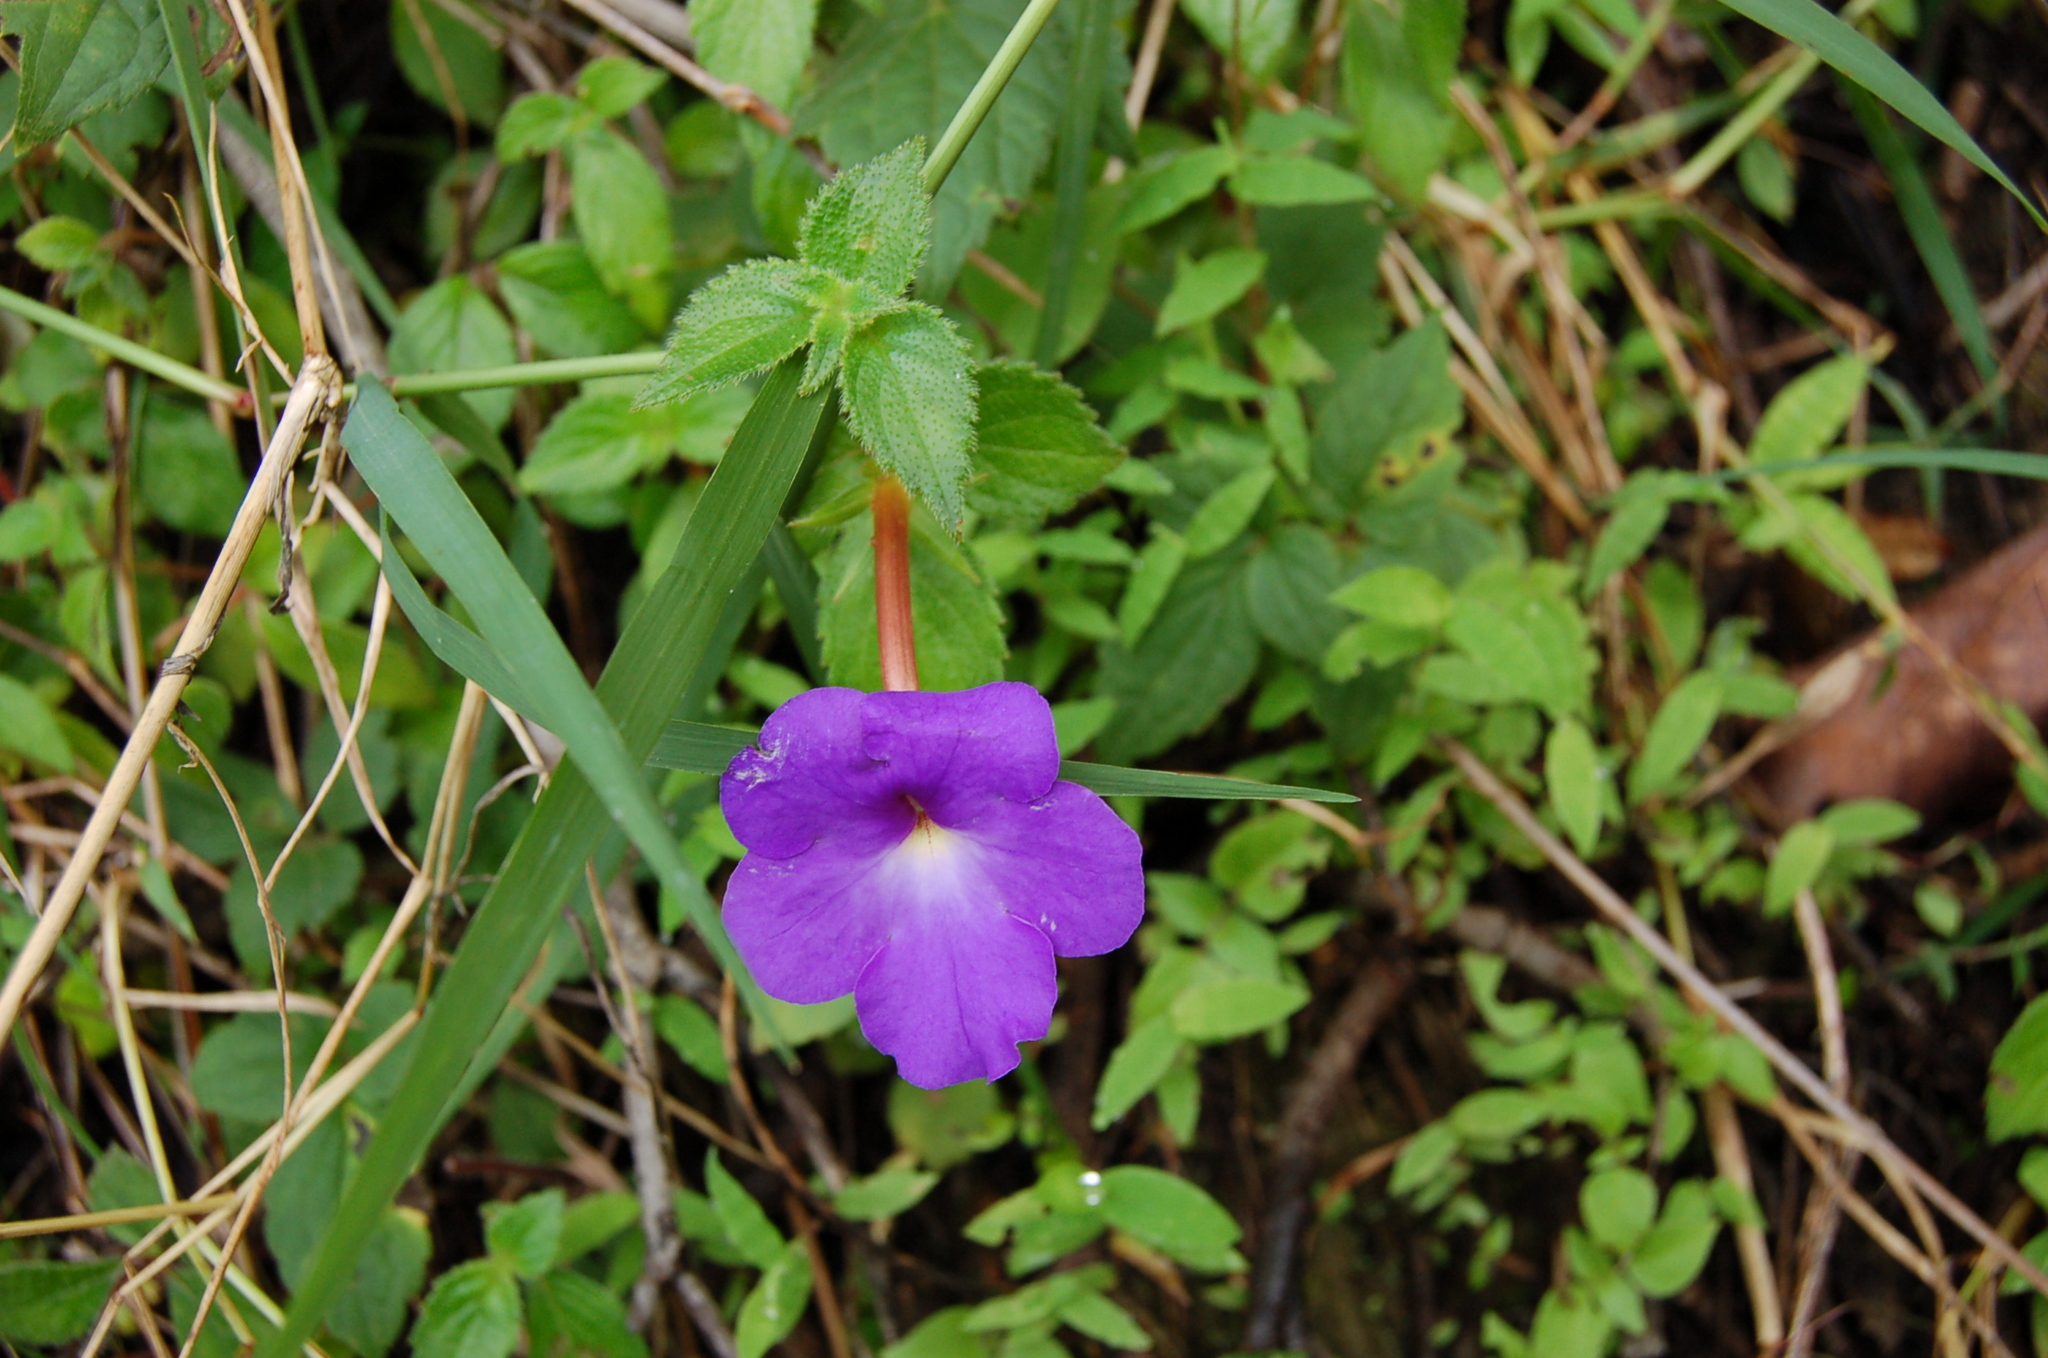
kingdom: Plantae
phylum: Tracheophyta
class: Magnoliopsida
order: Lamiales
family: Gesneriaceae
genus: Achimenes
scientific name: Achimenes longiflora
